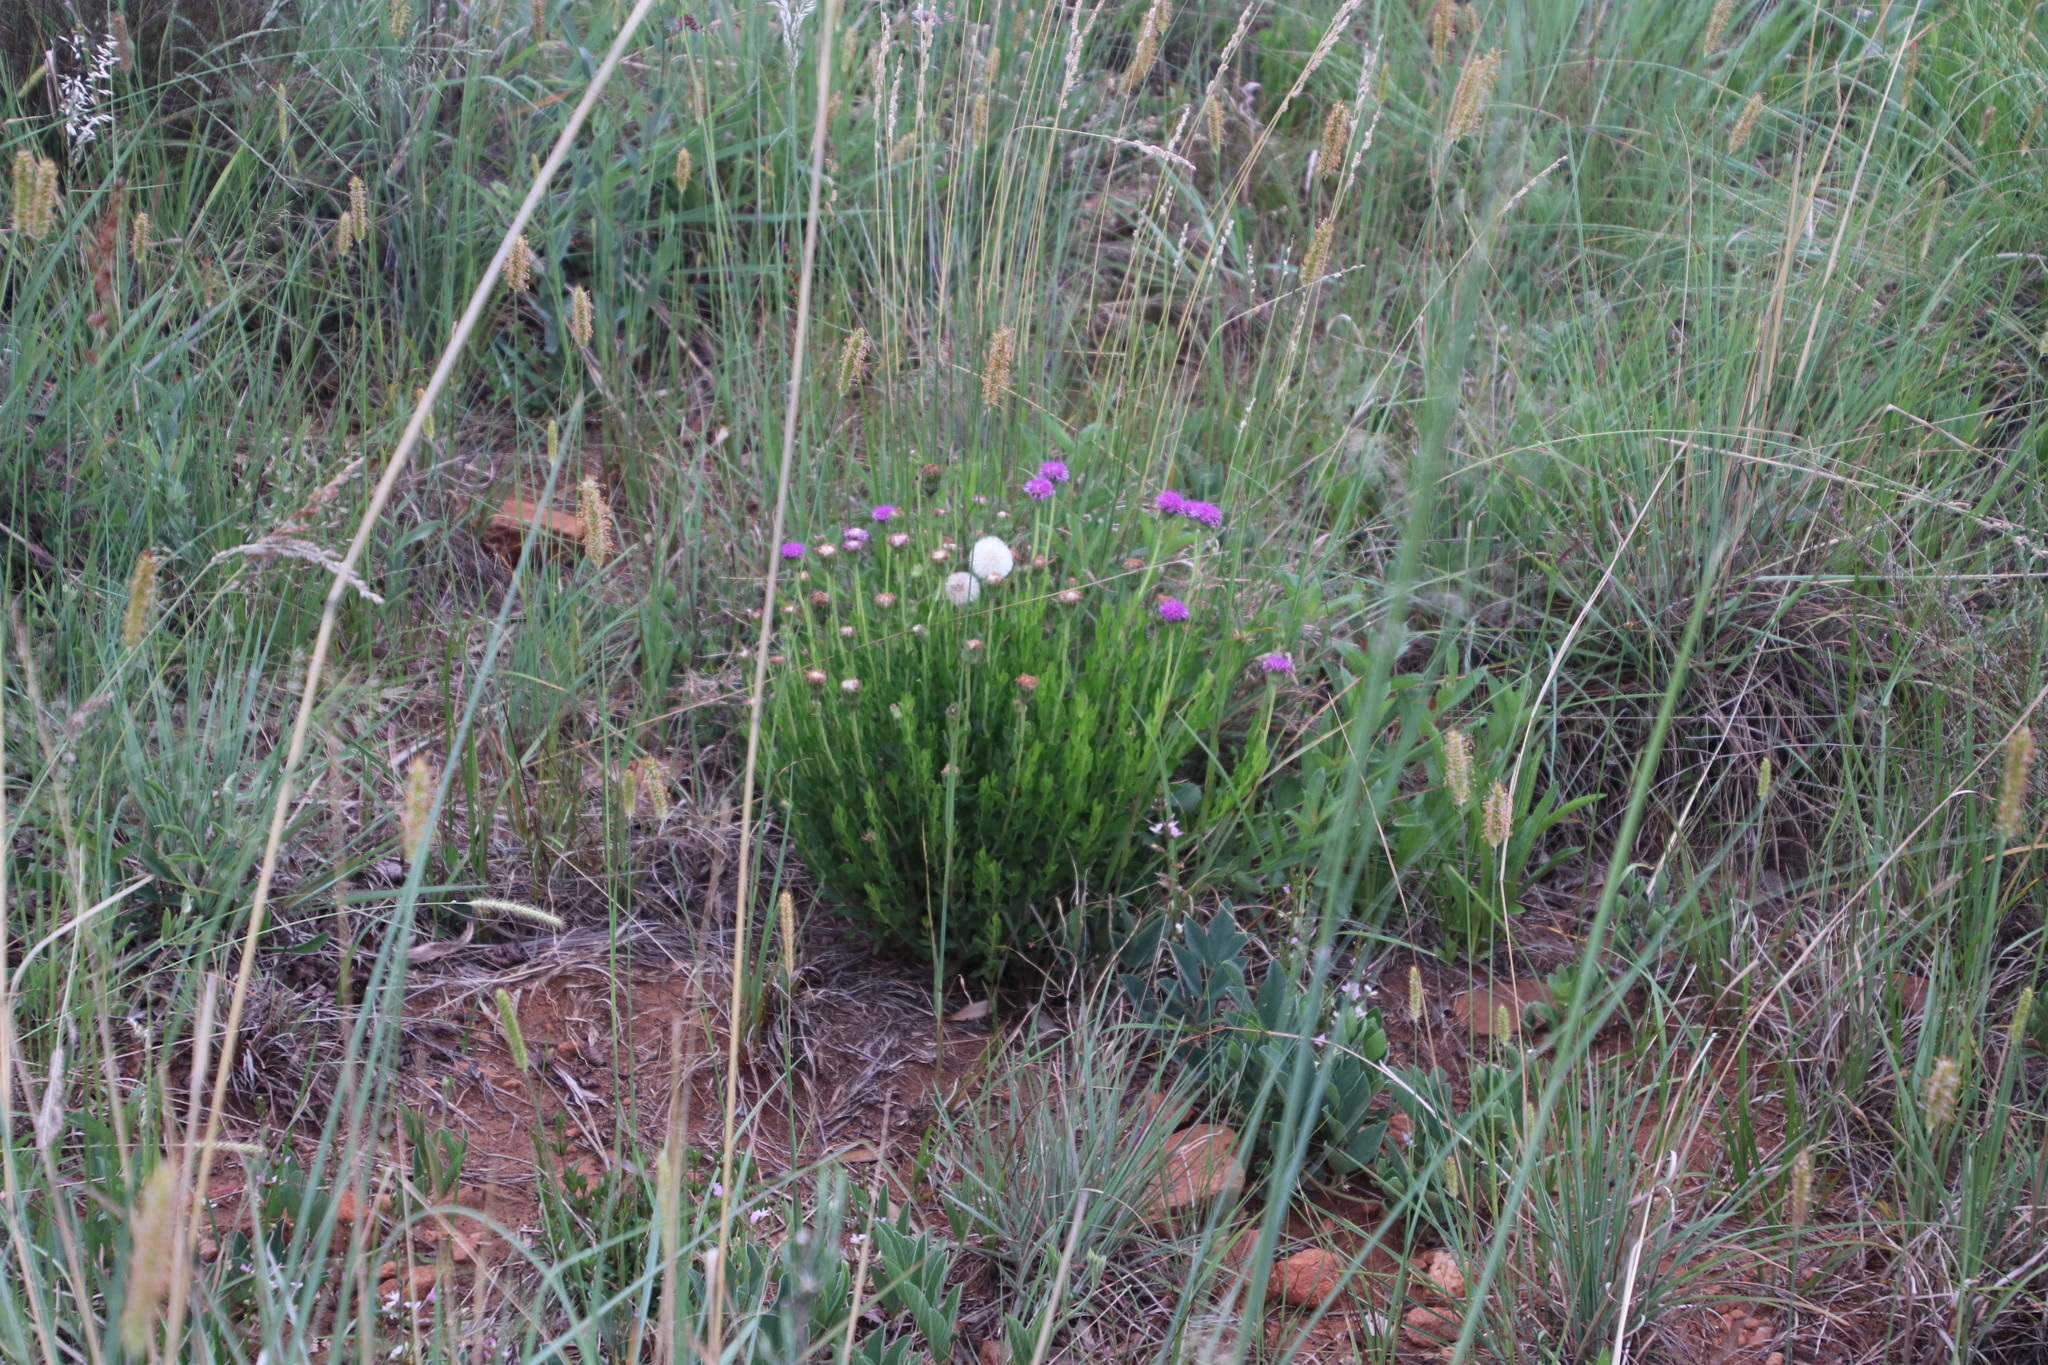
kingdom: Plantae
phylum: Tracheophyta
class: Magnoliopsida
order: Asterales
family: Asteraceae
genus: Pseudopegolettia
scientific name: Pseudopegolettia tenella
